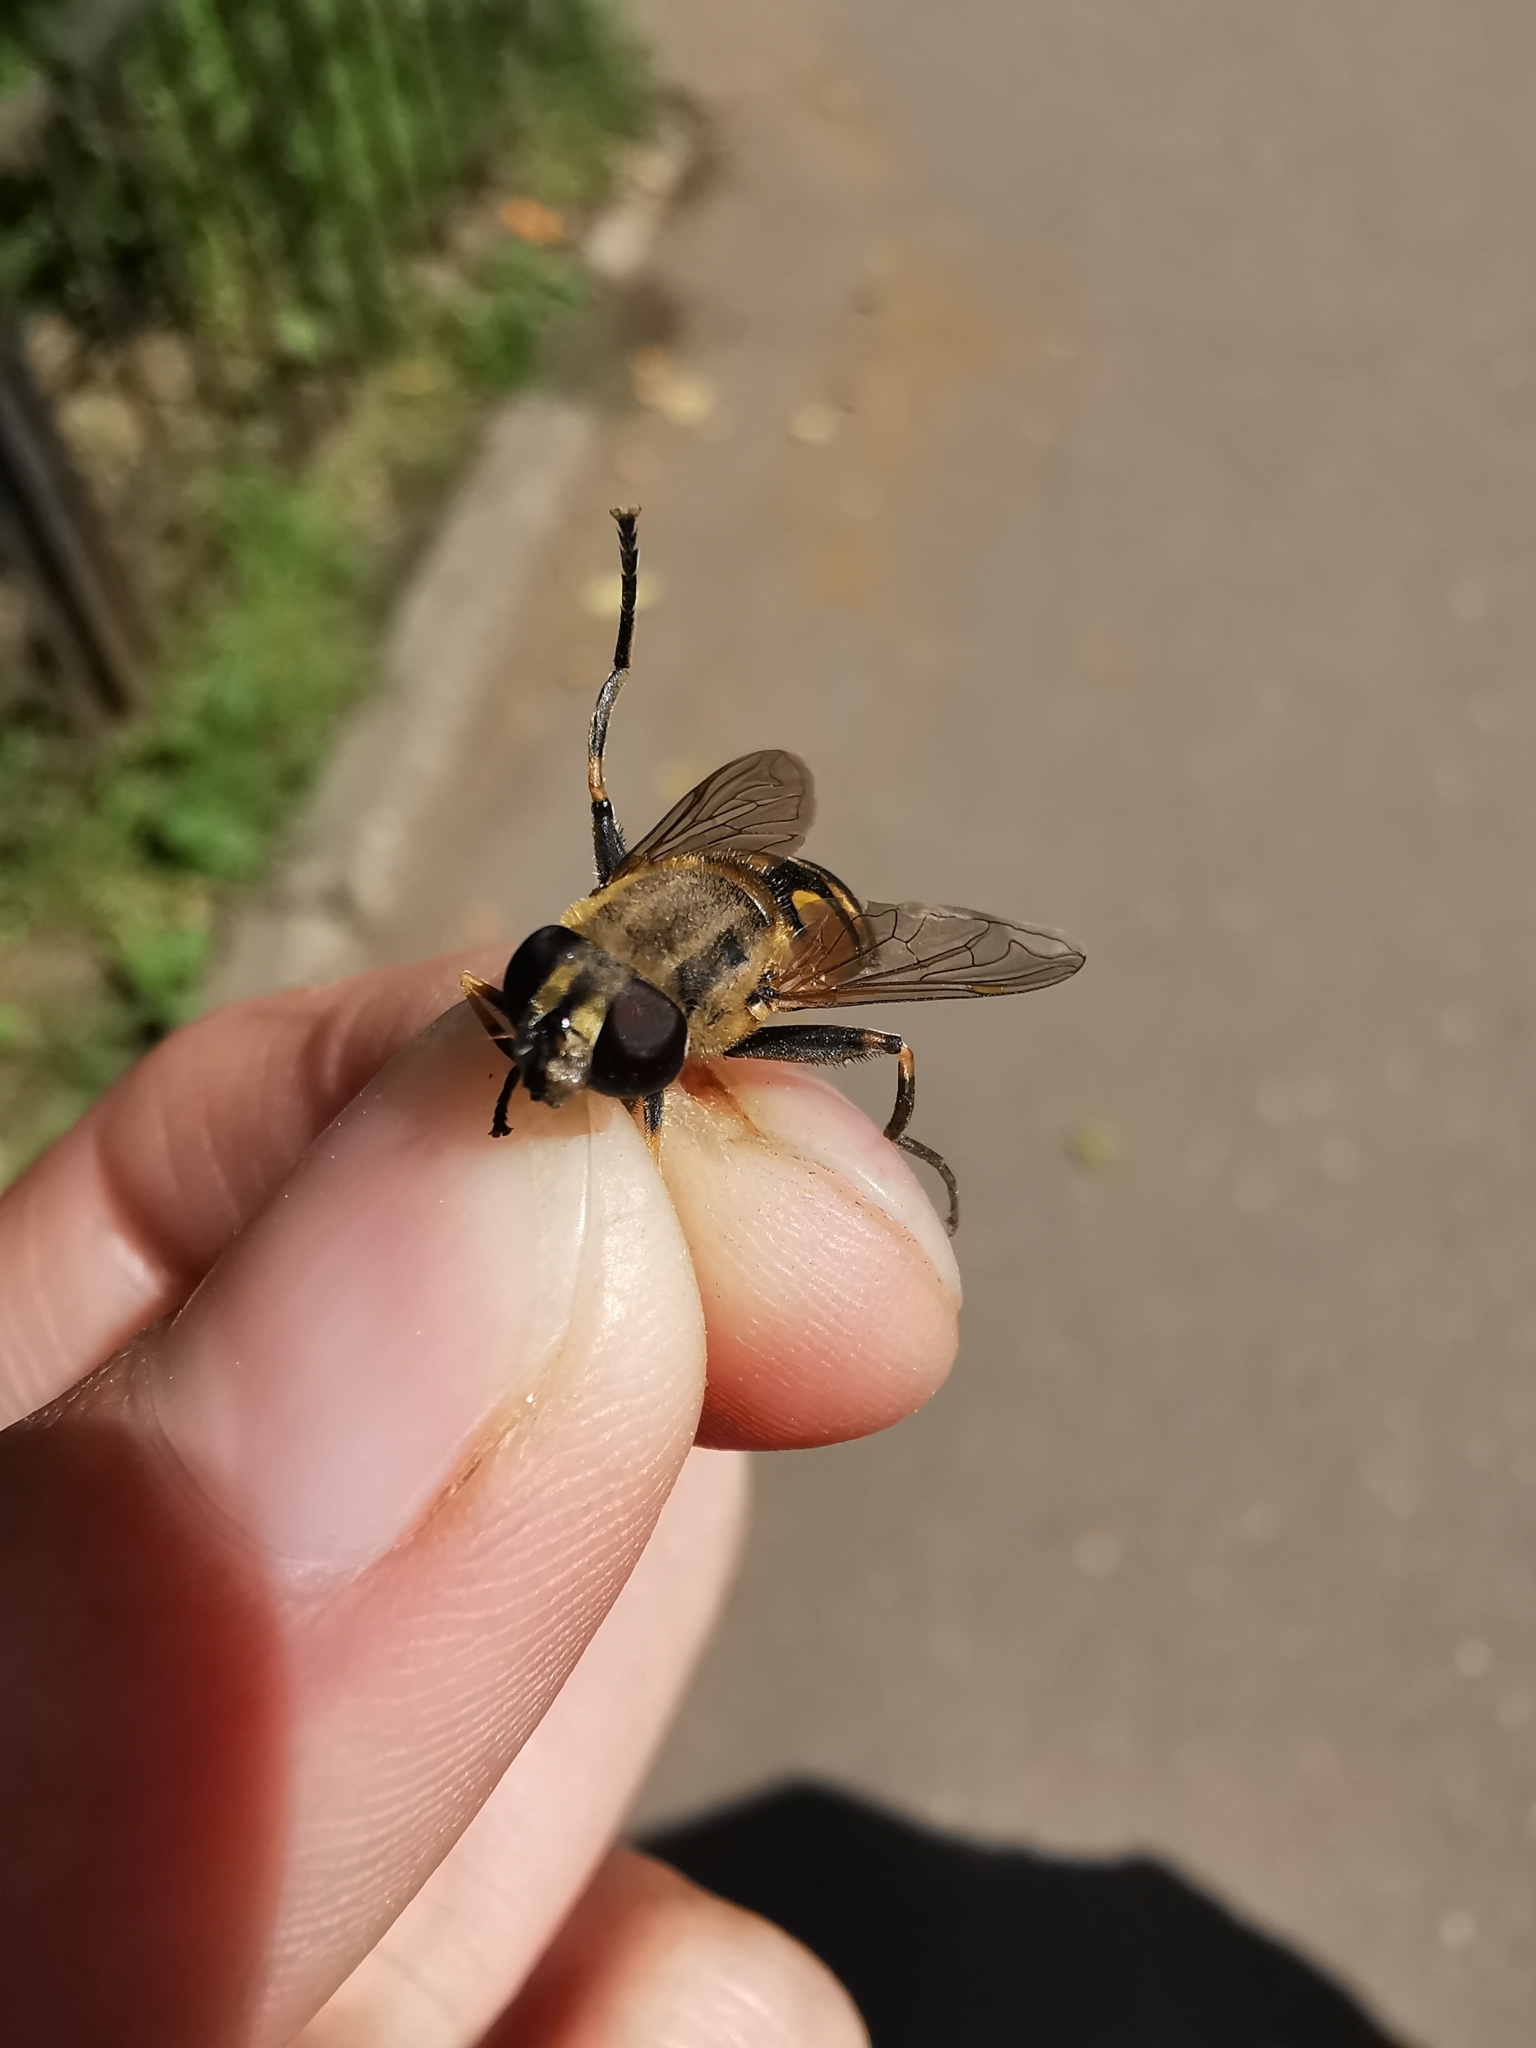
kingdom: Animalia
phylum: Arthropoda
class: Insecta
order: Diptera
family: Syrphidae
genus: Helophilus
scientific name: Helophilus hybridus
